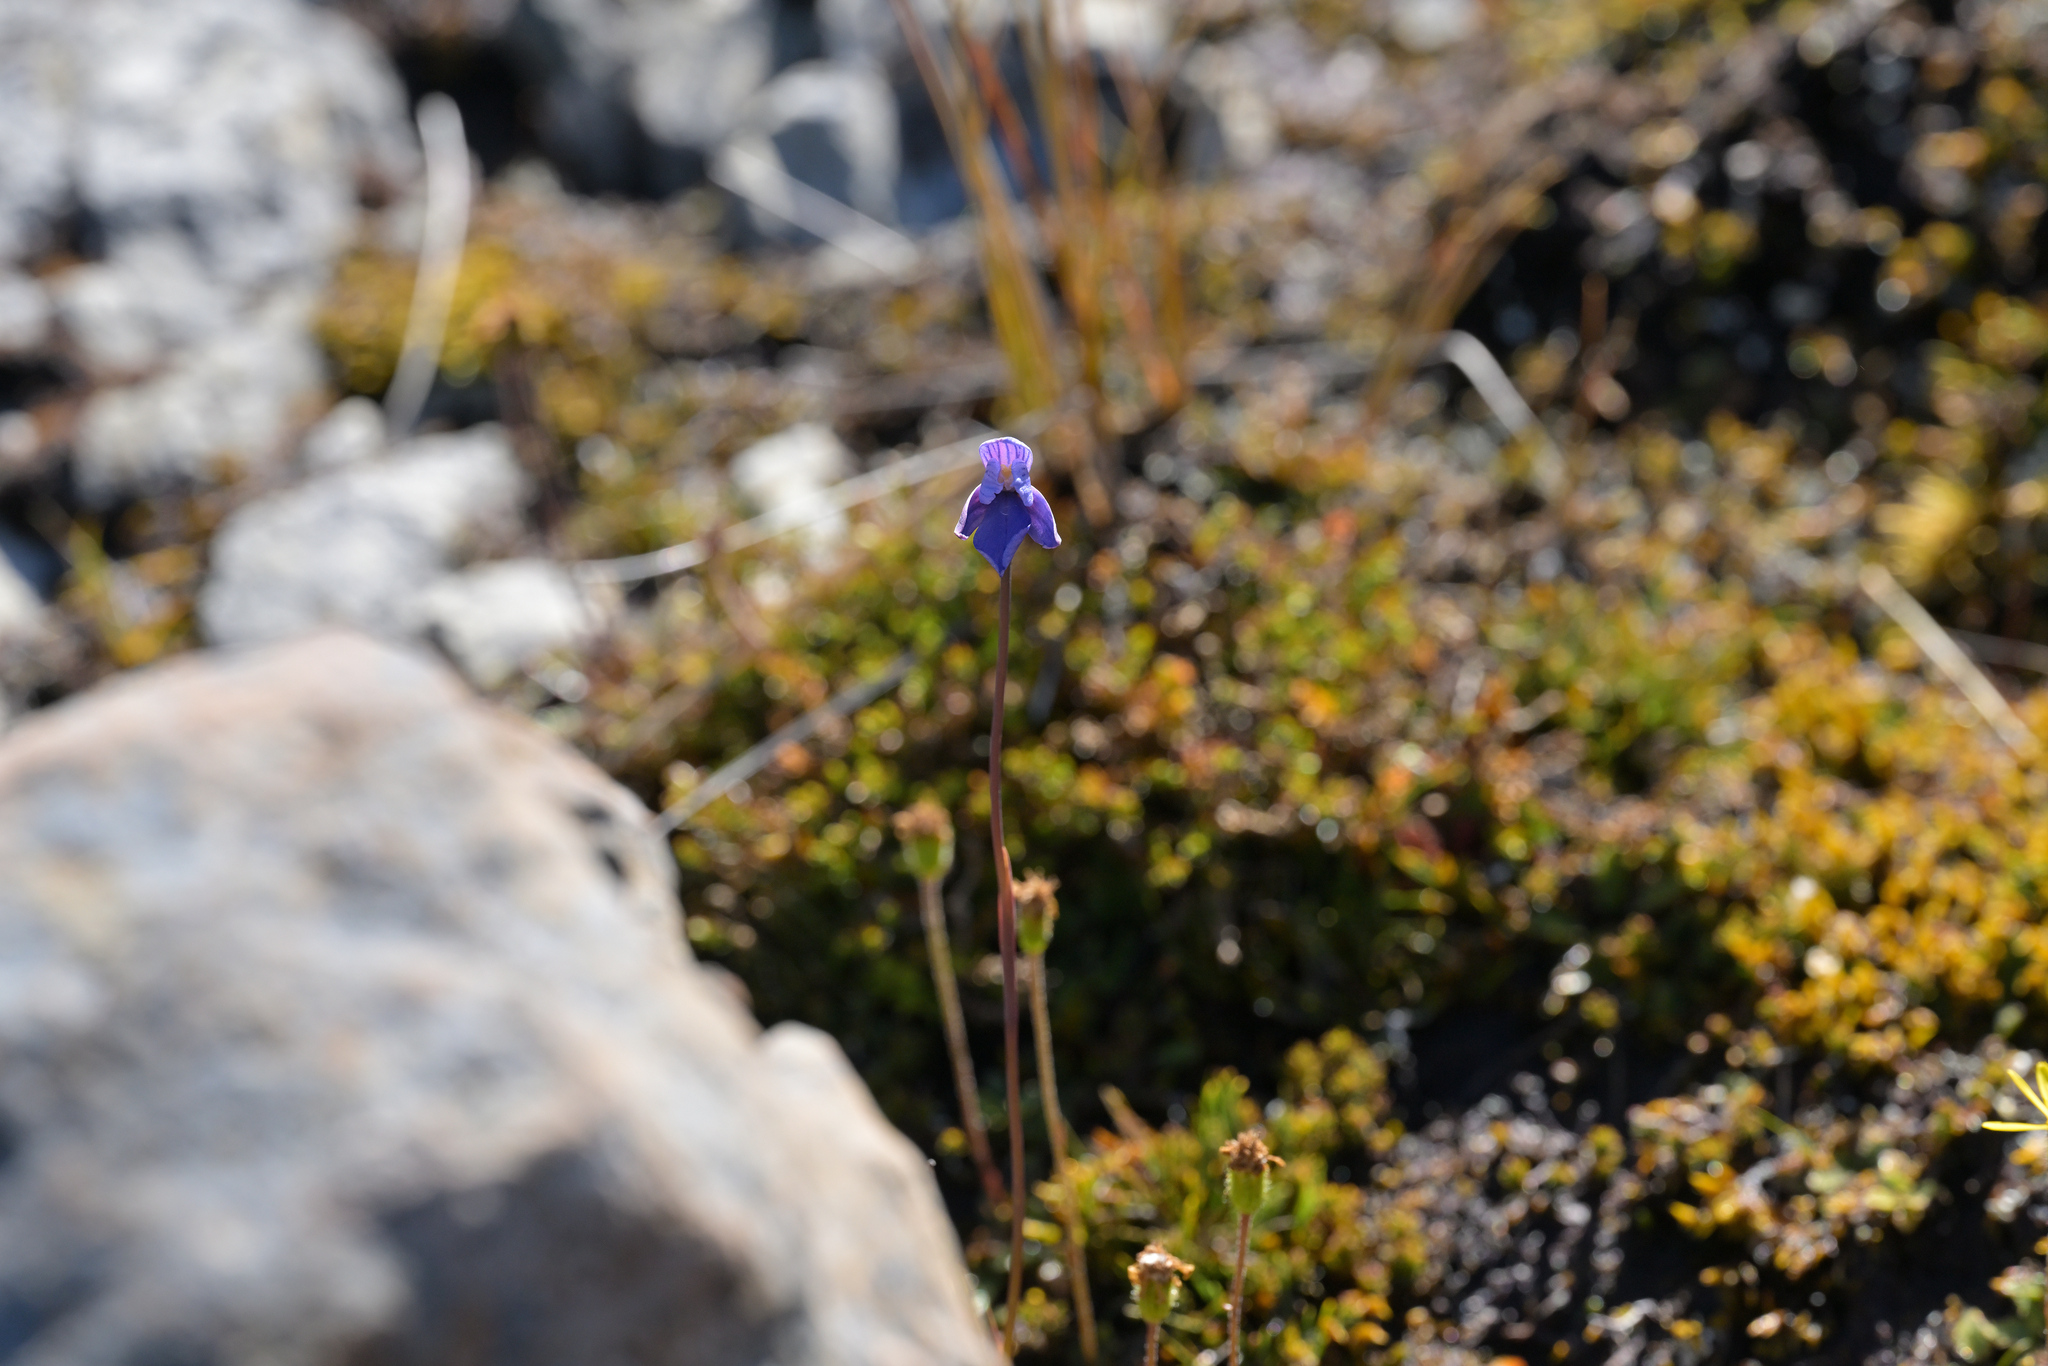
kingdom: Plantae
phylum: Tracheophyta
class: Liliopsida
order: Asparagales
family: Orchidaceae
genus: Thelymitra
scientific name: Thelymitra cyanea
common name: Blue sun-orchid
